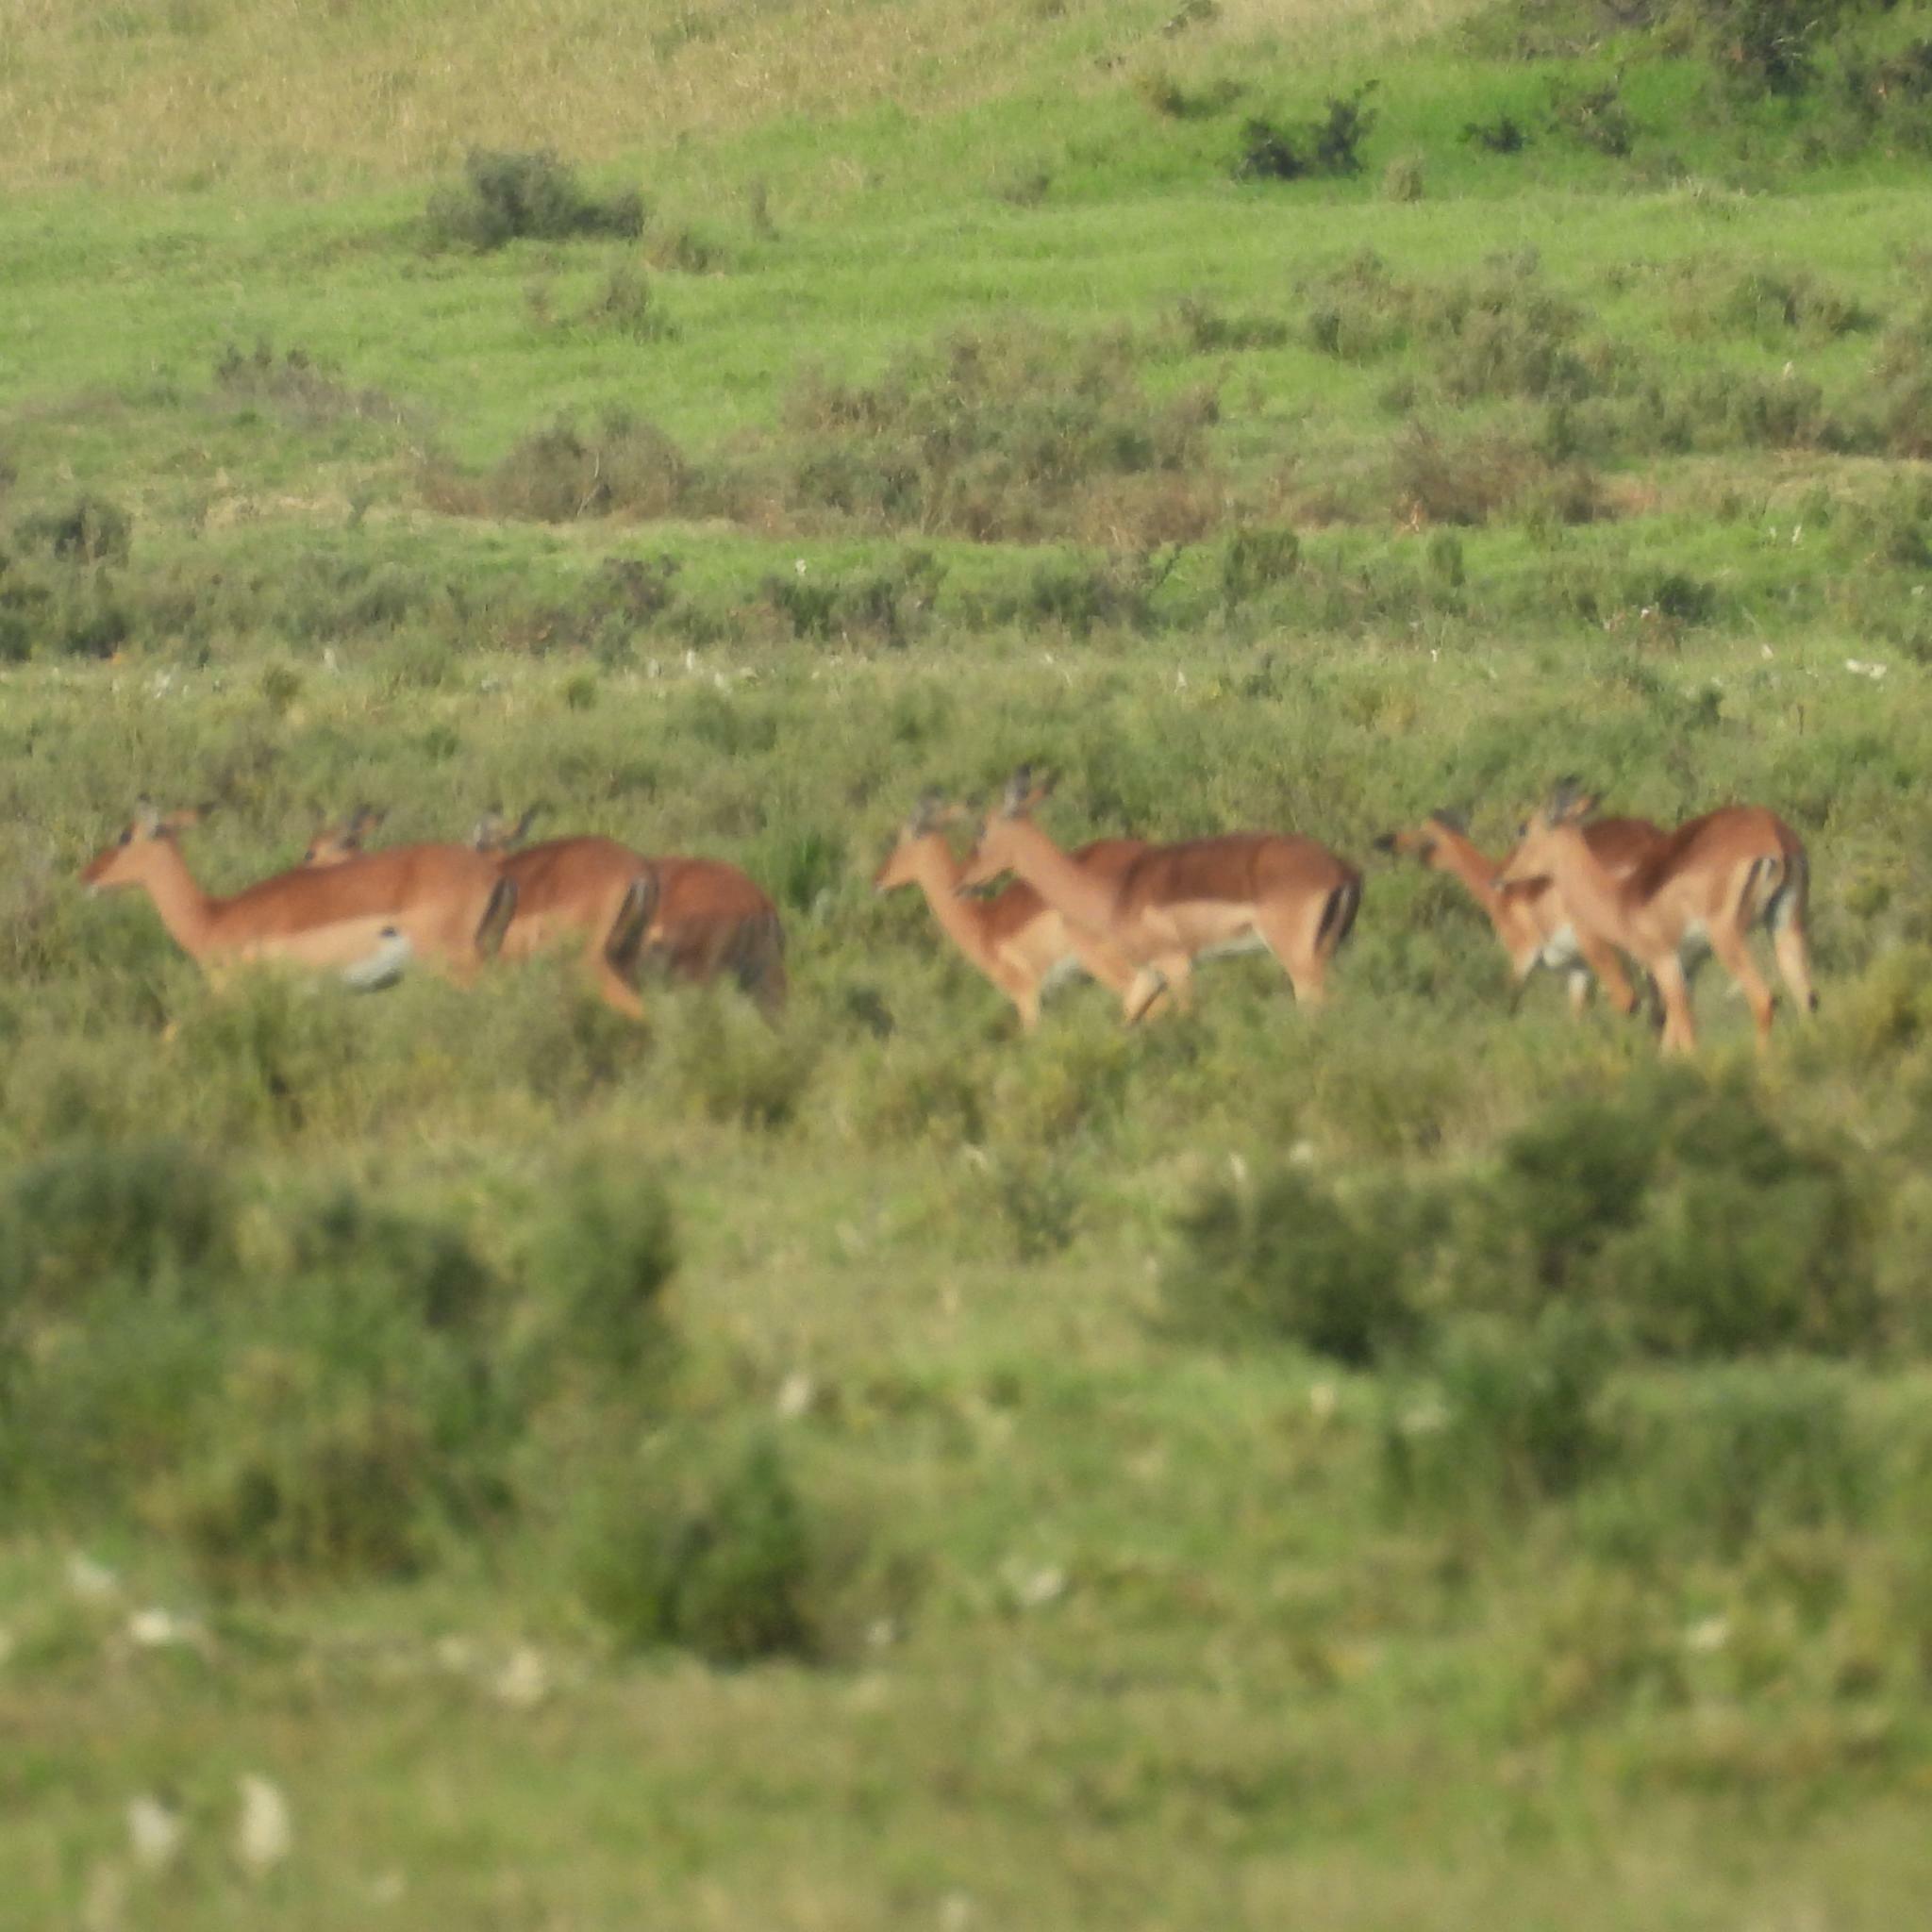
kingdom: Animalia
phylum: Chordata
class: Mammalia
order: Artiodactyla
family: Bovidae
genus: Aepyceros
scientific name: Aepyceros melampus
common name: Impala
